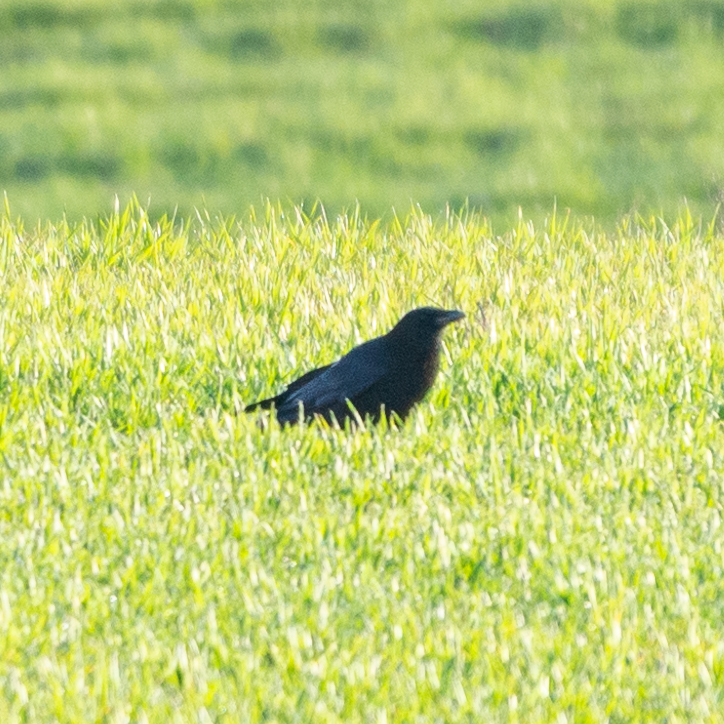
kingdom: Animalia
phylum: Chordata
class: Aves
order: Passeriformes
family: Corvidae
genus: Corvus
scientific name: Corvus corone
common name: Carrion crow
